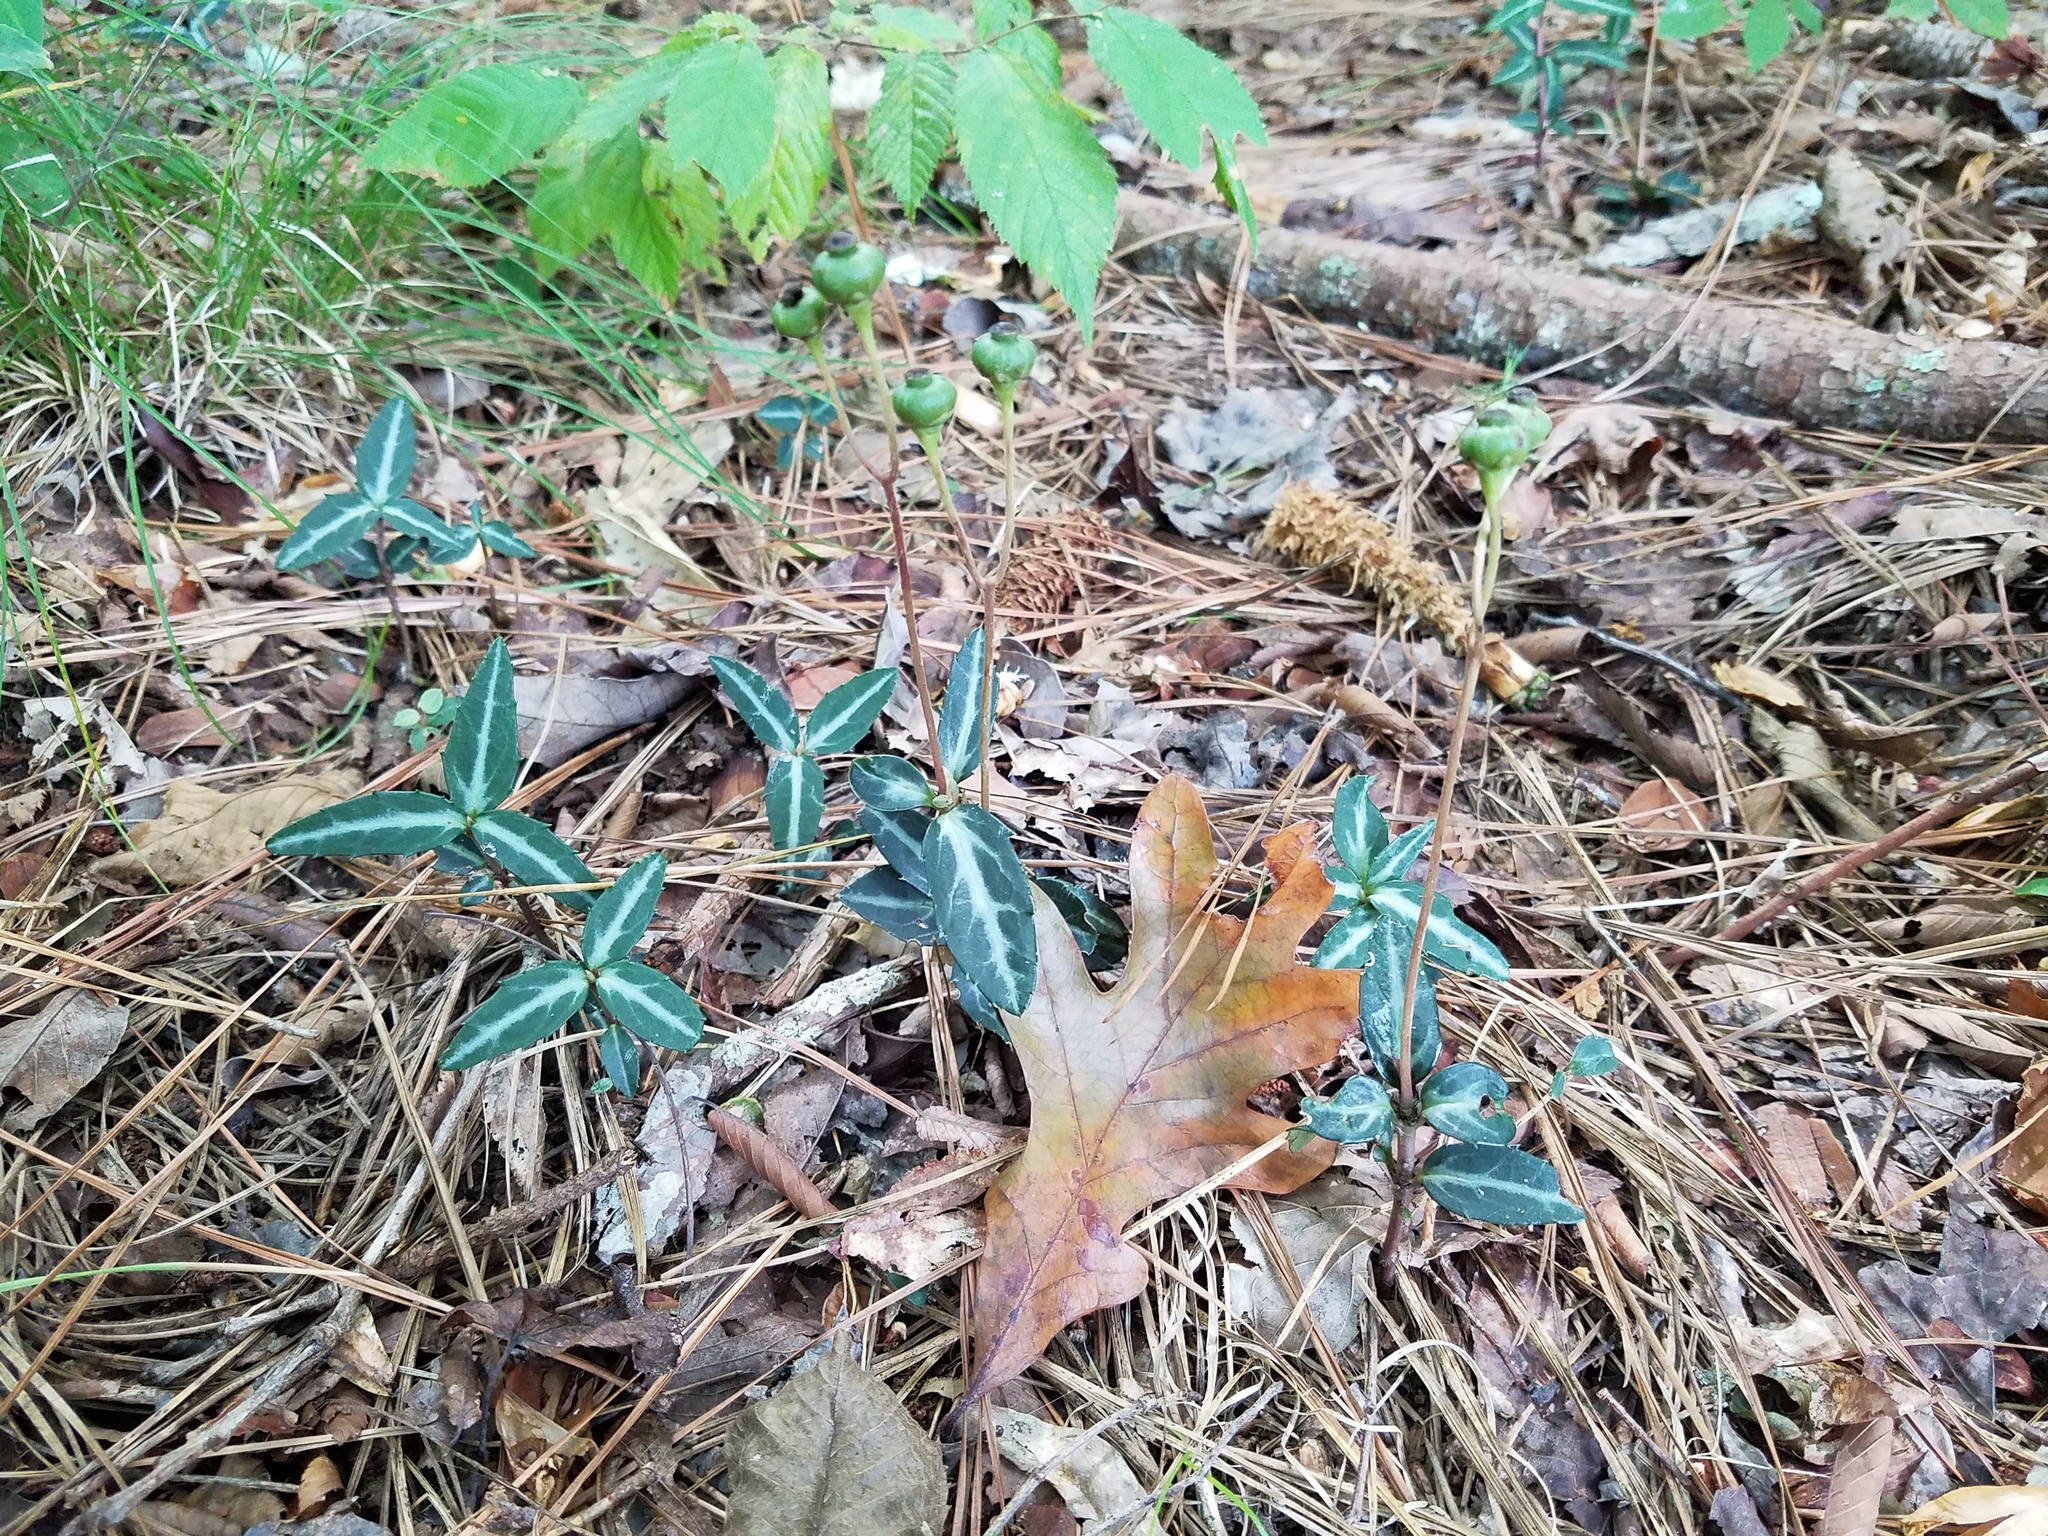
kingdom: Plantae
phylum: Tracheophyta
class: Magnoliopsida
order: Ericales
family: Ericaceae
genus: Chimaphila
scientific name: Chimaphila maculata
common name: Spotted pipsissewa
